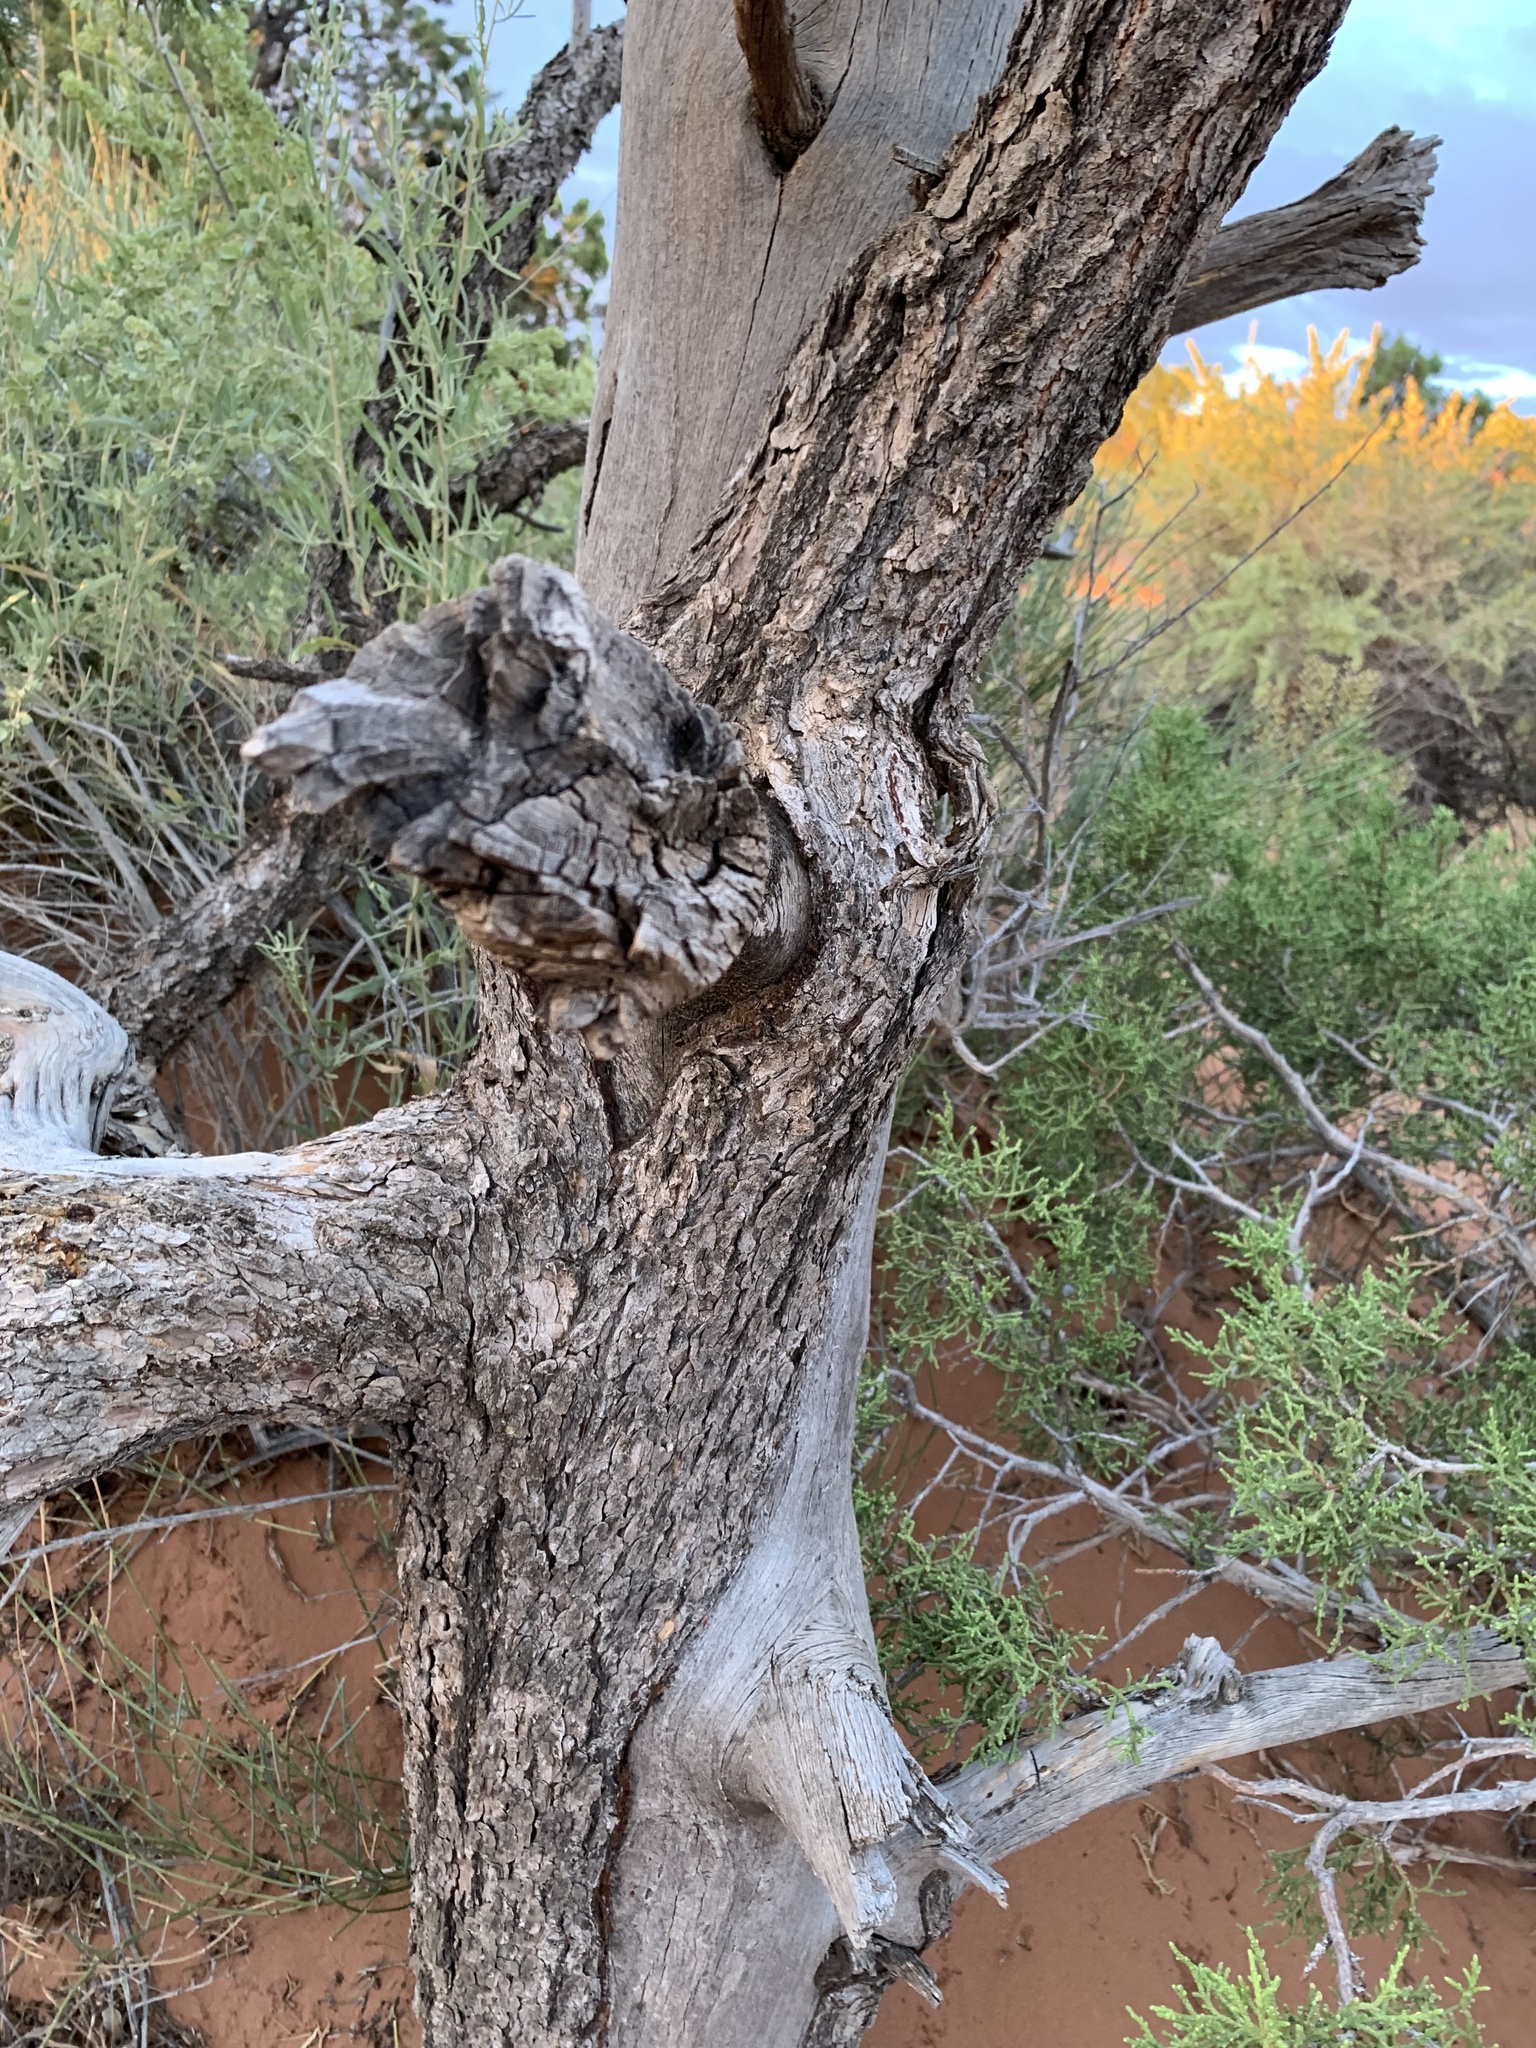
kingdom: Plantae
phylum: Tracheophyta
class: Pinopsida
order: Pinales
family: Pinaceae
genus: Pinus
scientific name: Pinus edulis
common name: Colorado pinyon
